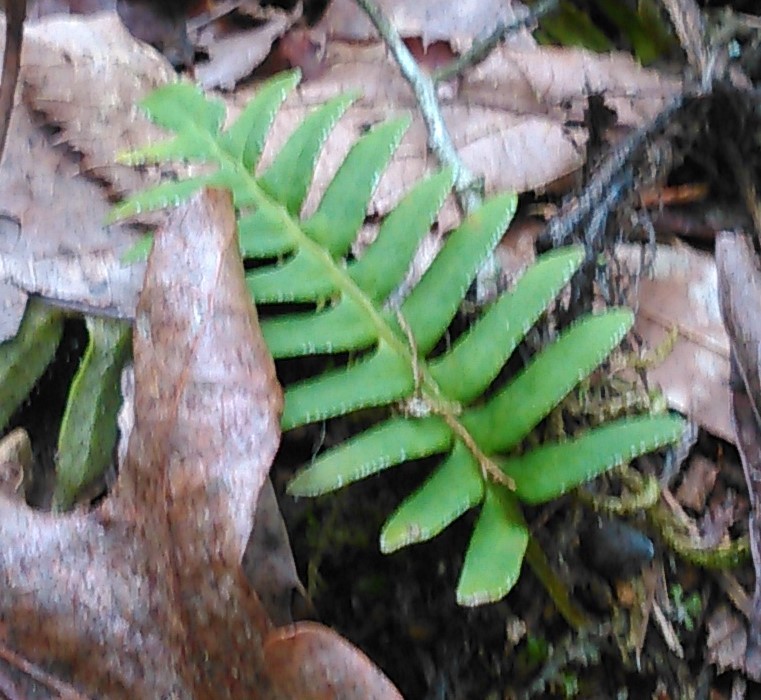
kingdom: Plantae
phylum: Tracheophyta
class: Polypodiopsida
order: Polypodiales
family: Polypodiaceae
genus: Pleopeltis
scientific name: Pleopeltis michauxiana
